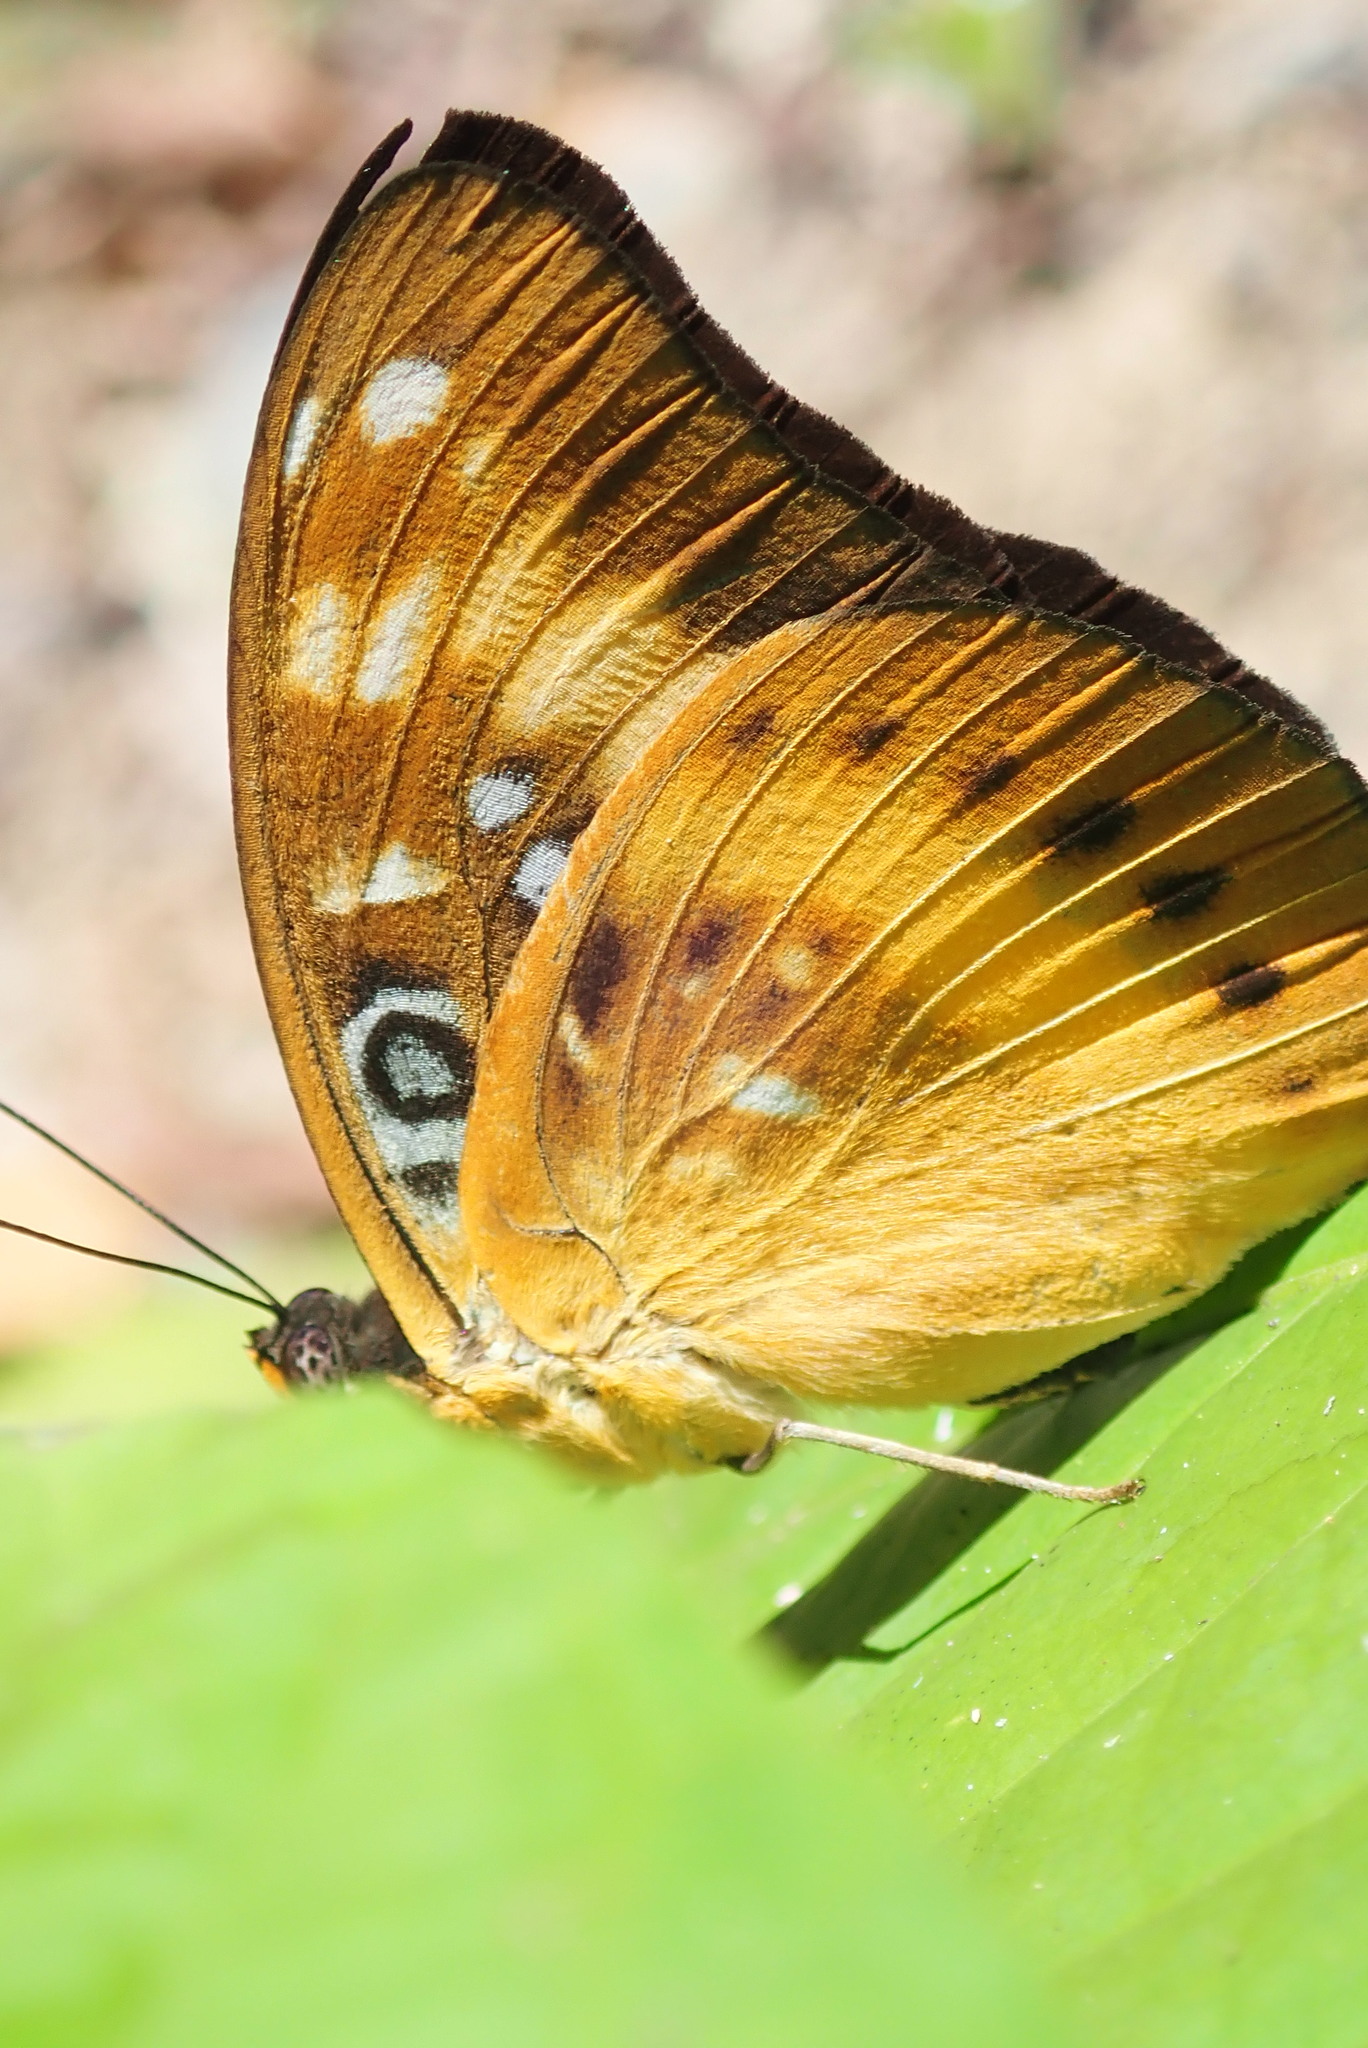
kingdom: Animalia
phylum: Arthropoda
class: Insecta
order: Lepidoptera
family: Nymphalidae
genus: Lexias
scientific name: Lexias aeropa
